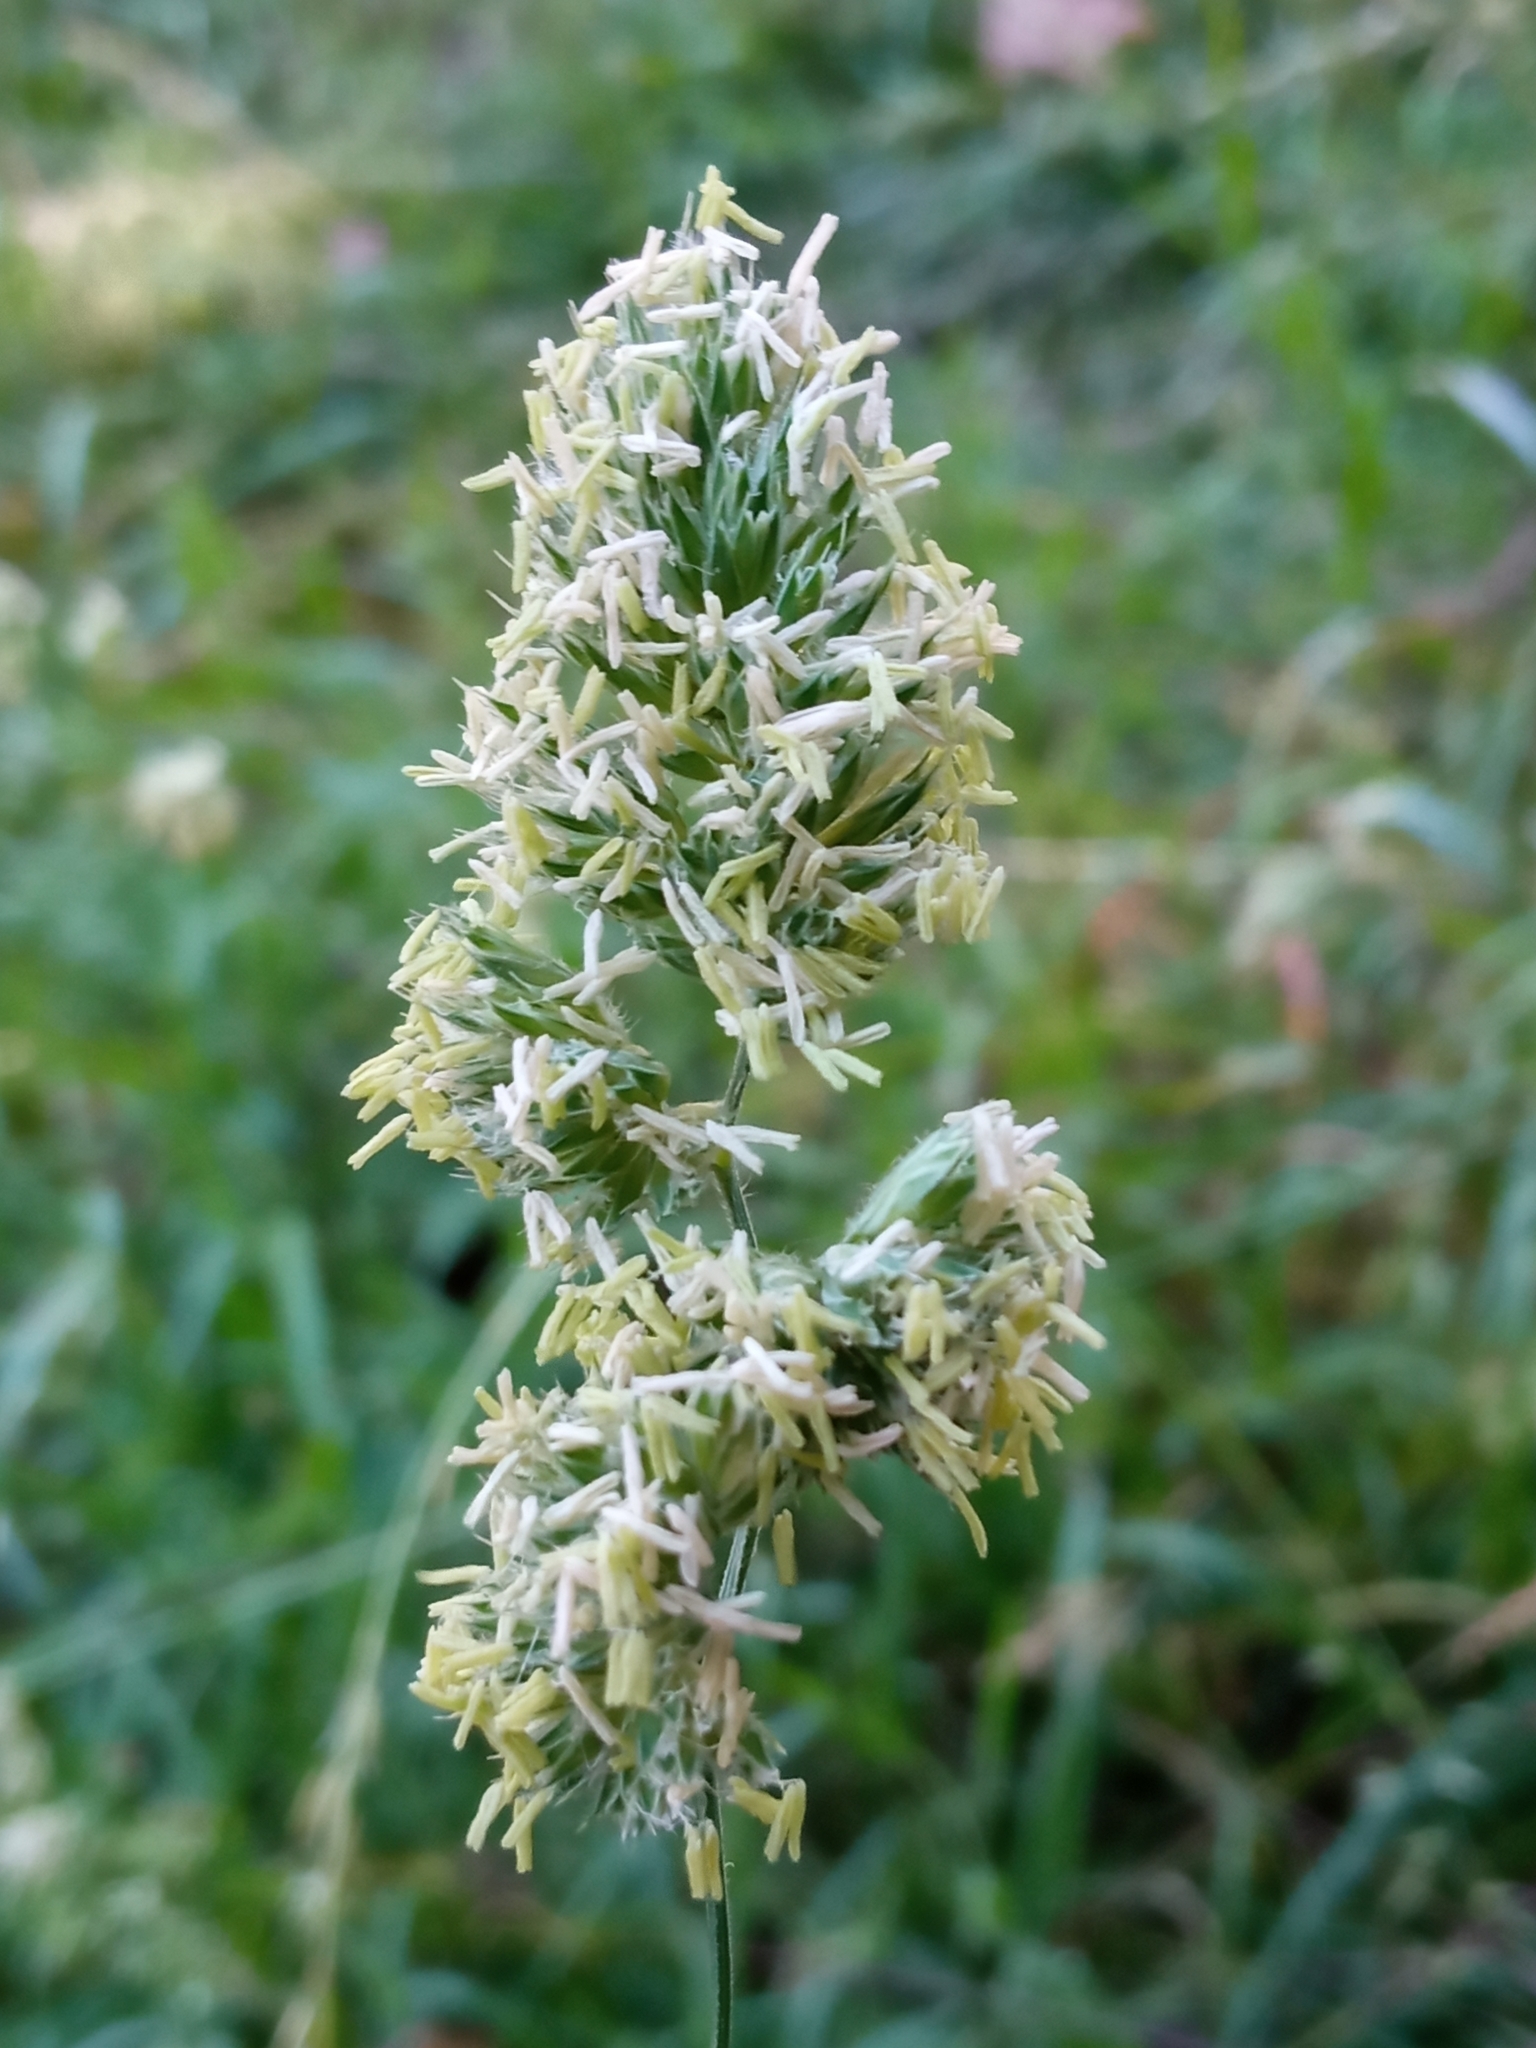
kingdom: Plantae
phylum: Tracheophyta
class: Liliopsida
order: Poales
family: Poaceae
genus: Dactylis
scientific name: Dactylis glomerata
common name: Orchardgrass
